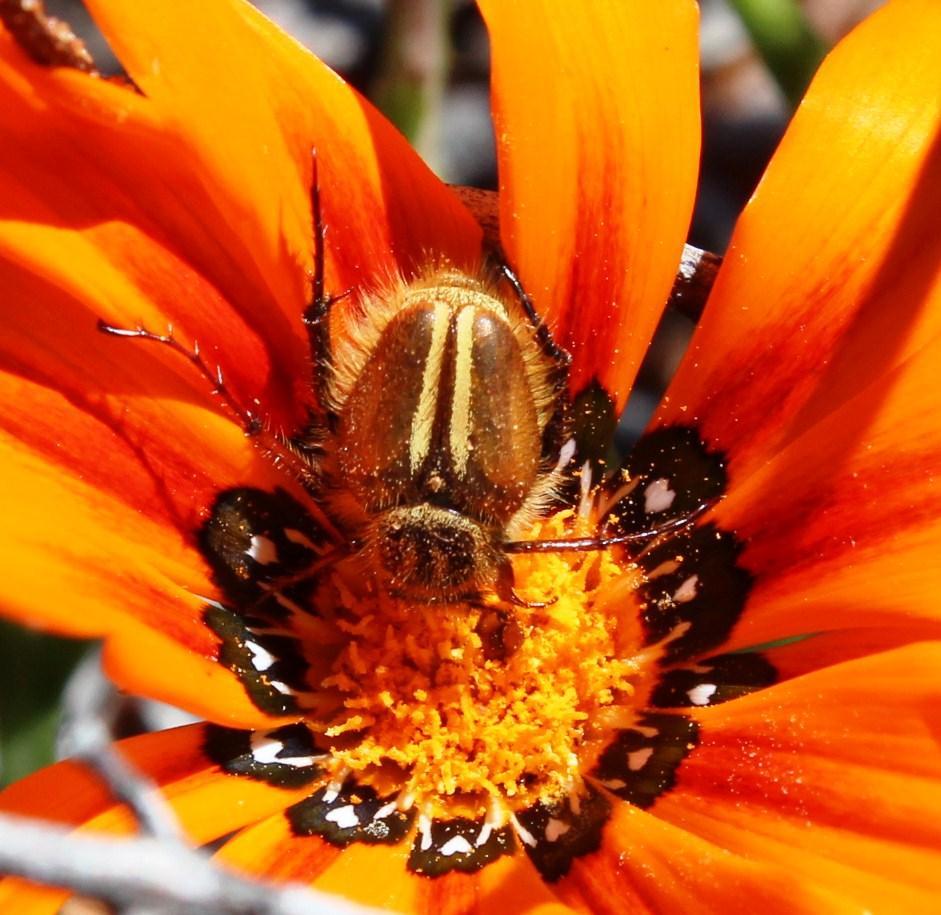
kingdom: Animalia
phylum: Arthropoda
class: Insecta
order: Coleoptera
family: Scarabaeidae
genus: Lepithrix
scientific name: Lepithrix longitarsis
